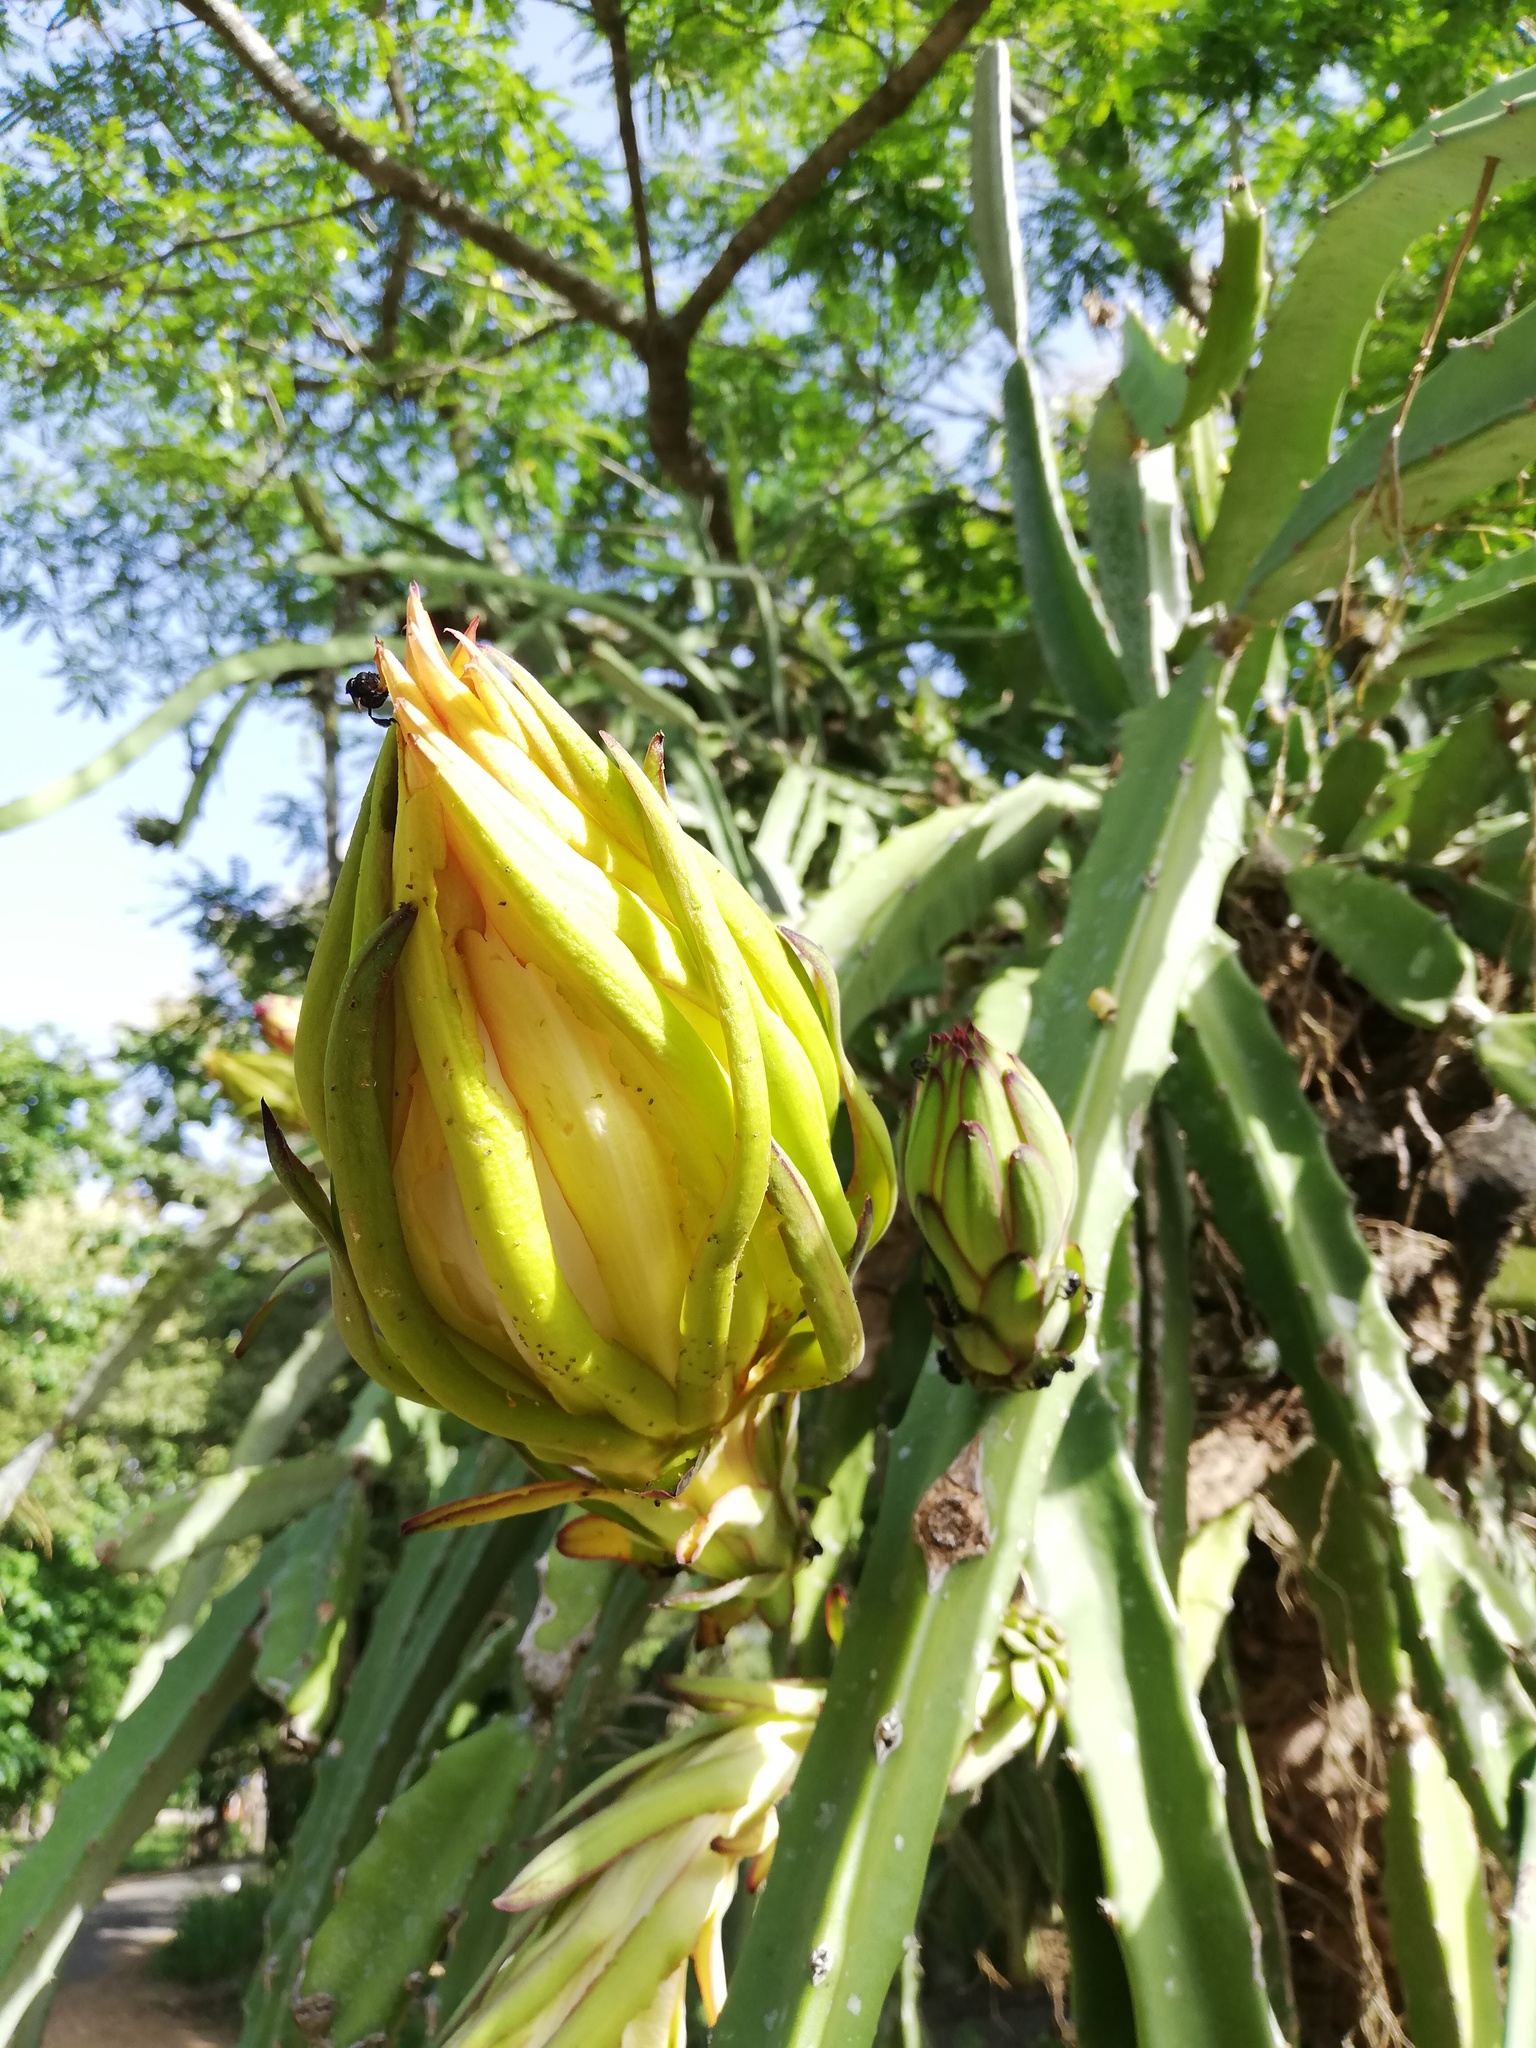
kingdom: Plantae
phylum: Tracheophyta
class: Magnoliopsida
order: Caryophyllales
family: Cactaceae
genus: Selenicereus
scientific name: Selenicereus costaricensis
